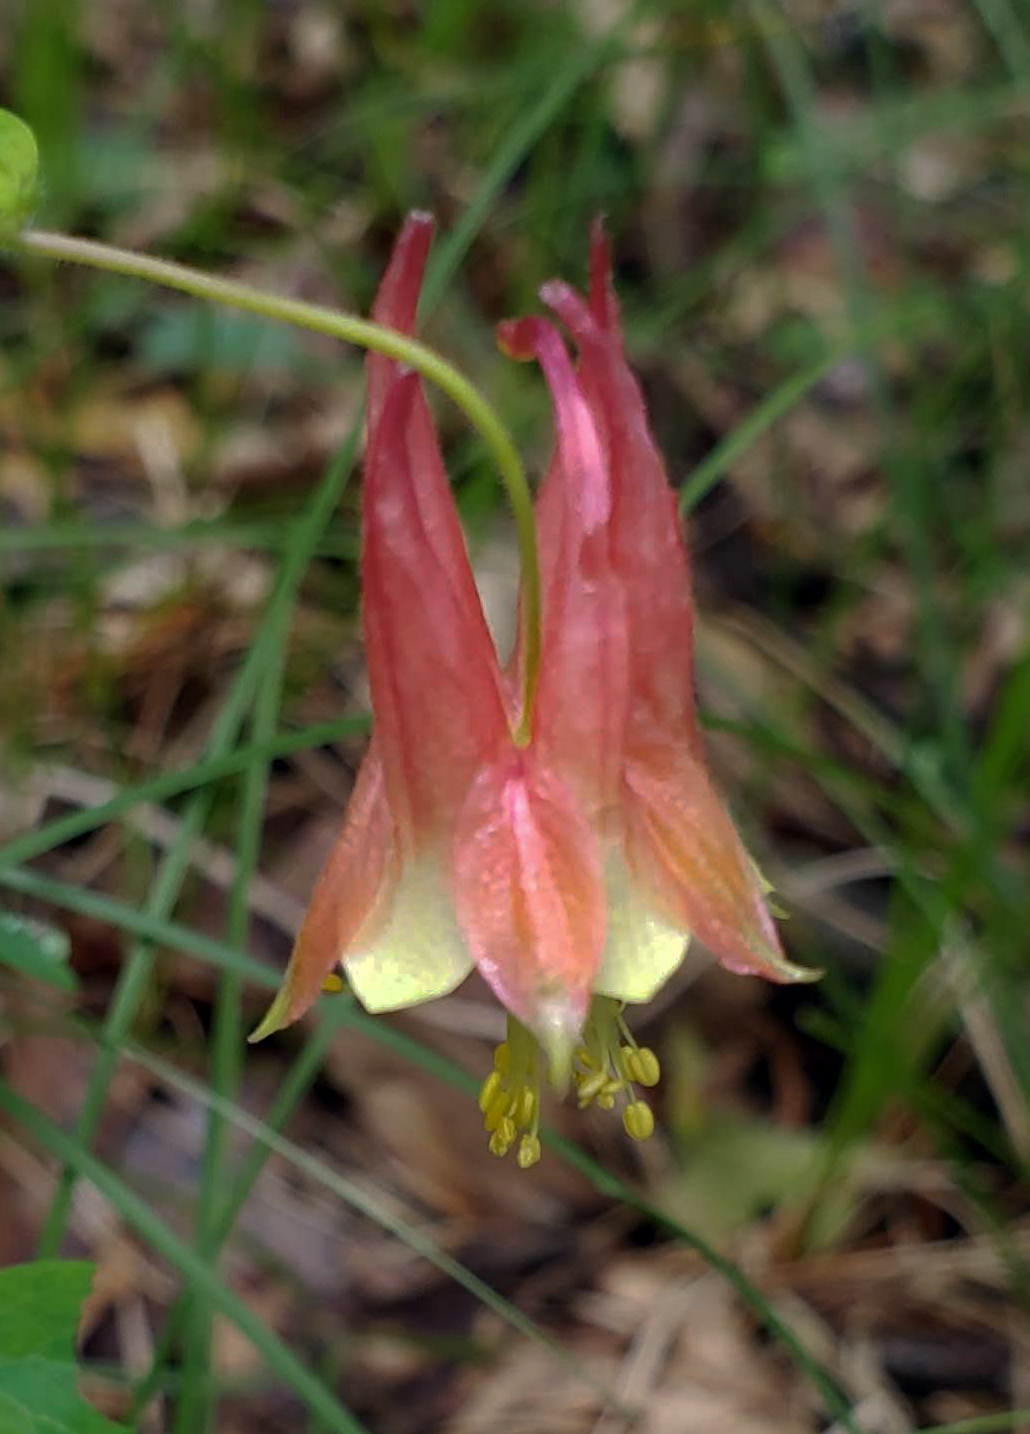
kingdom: Plantae
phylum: Tracheophyta
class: Magnoliopsida
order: Ranunculales
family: Ranunculaceae
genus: Aquilegia
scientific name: Aquilegia canadensis
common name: American columbine
